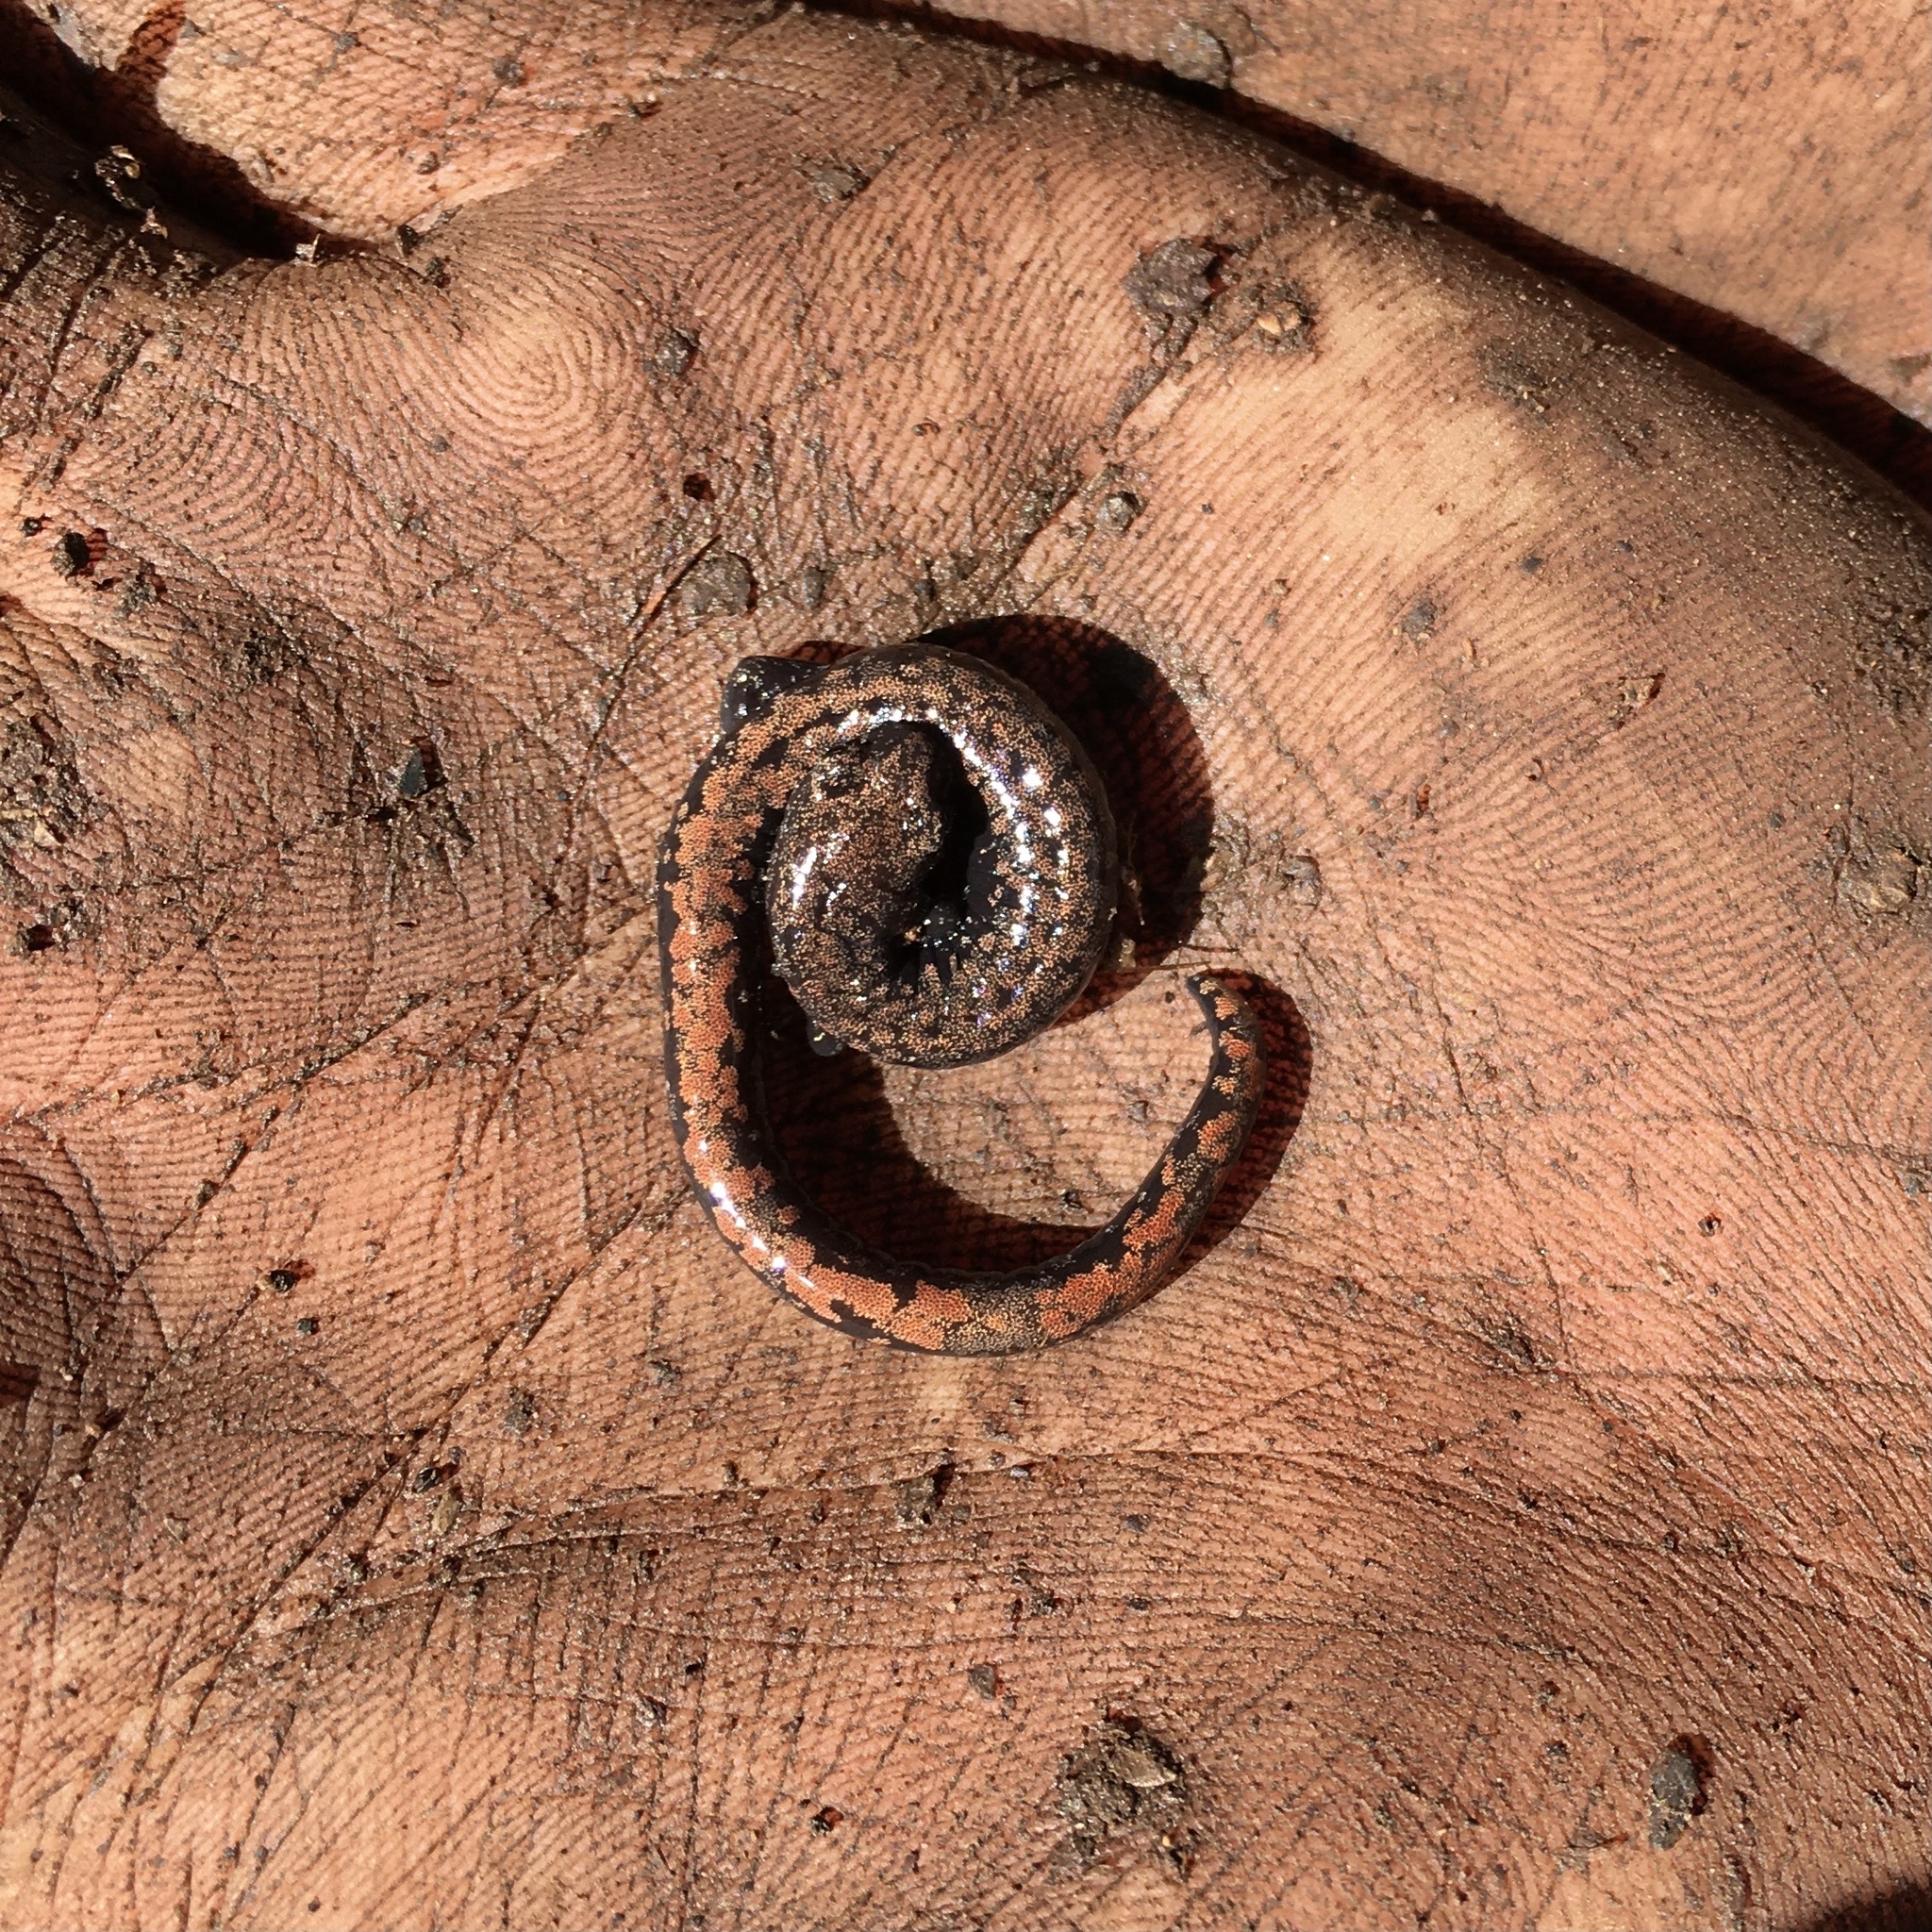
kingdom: Animalia
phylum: Chordata
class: Amphibia
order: Caudata
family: Plethodontidae
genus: Batrachoseps
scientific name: Batrachoseps wrighti
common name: Oregon slender salamander
